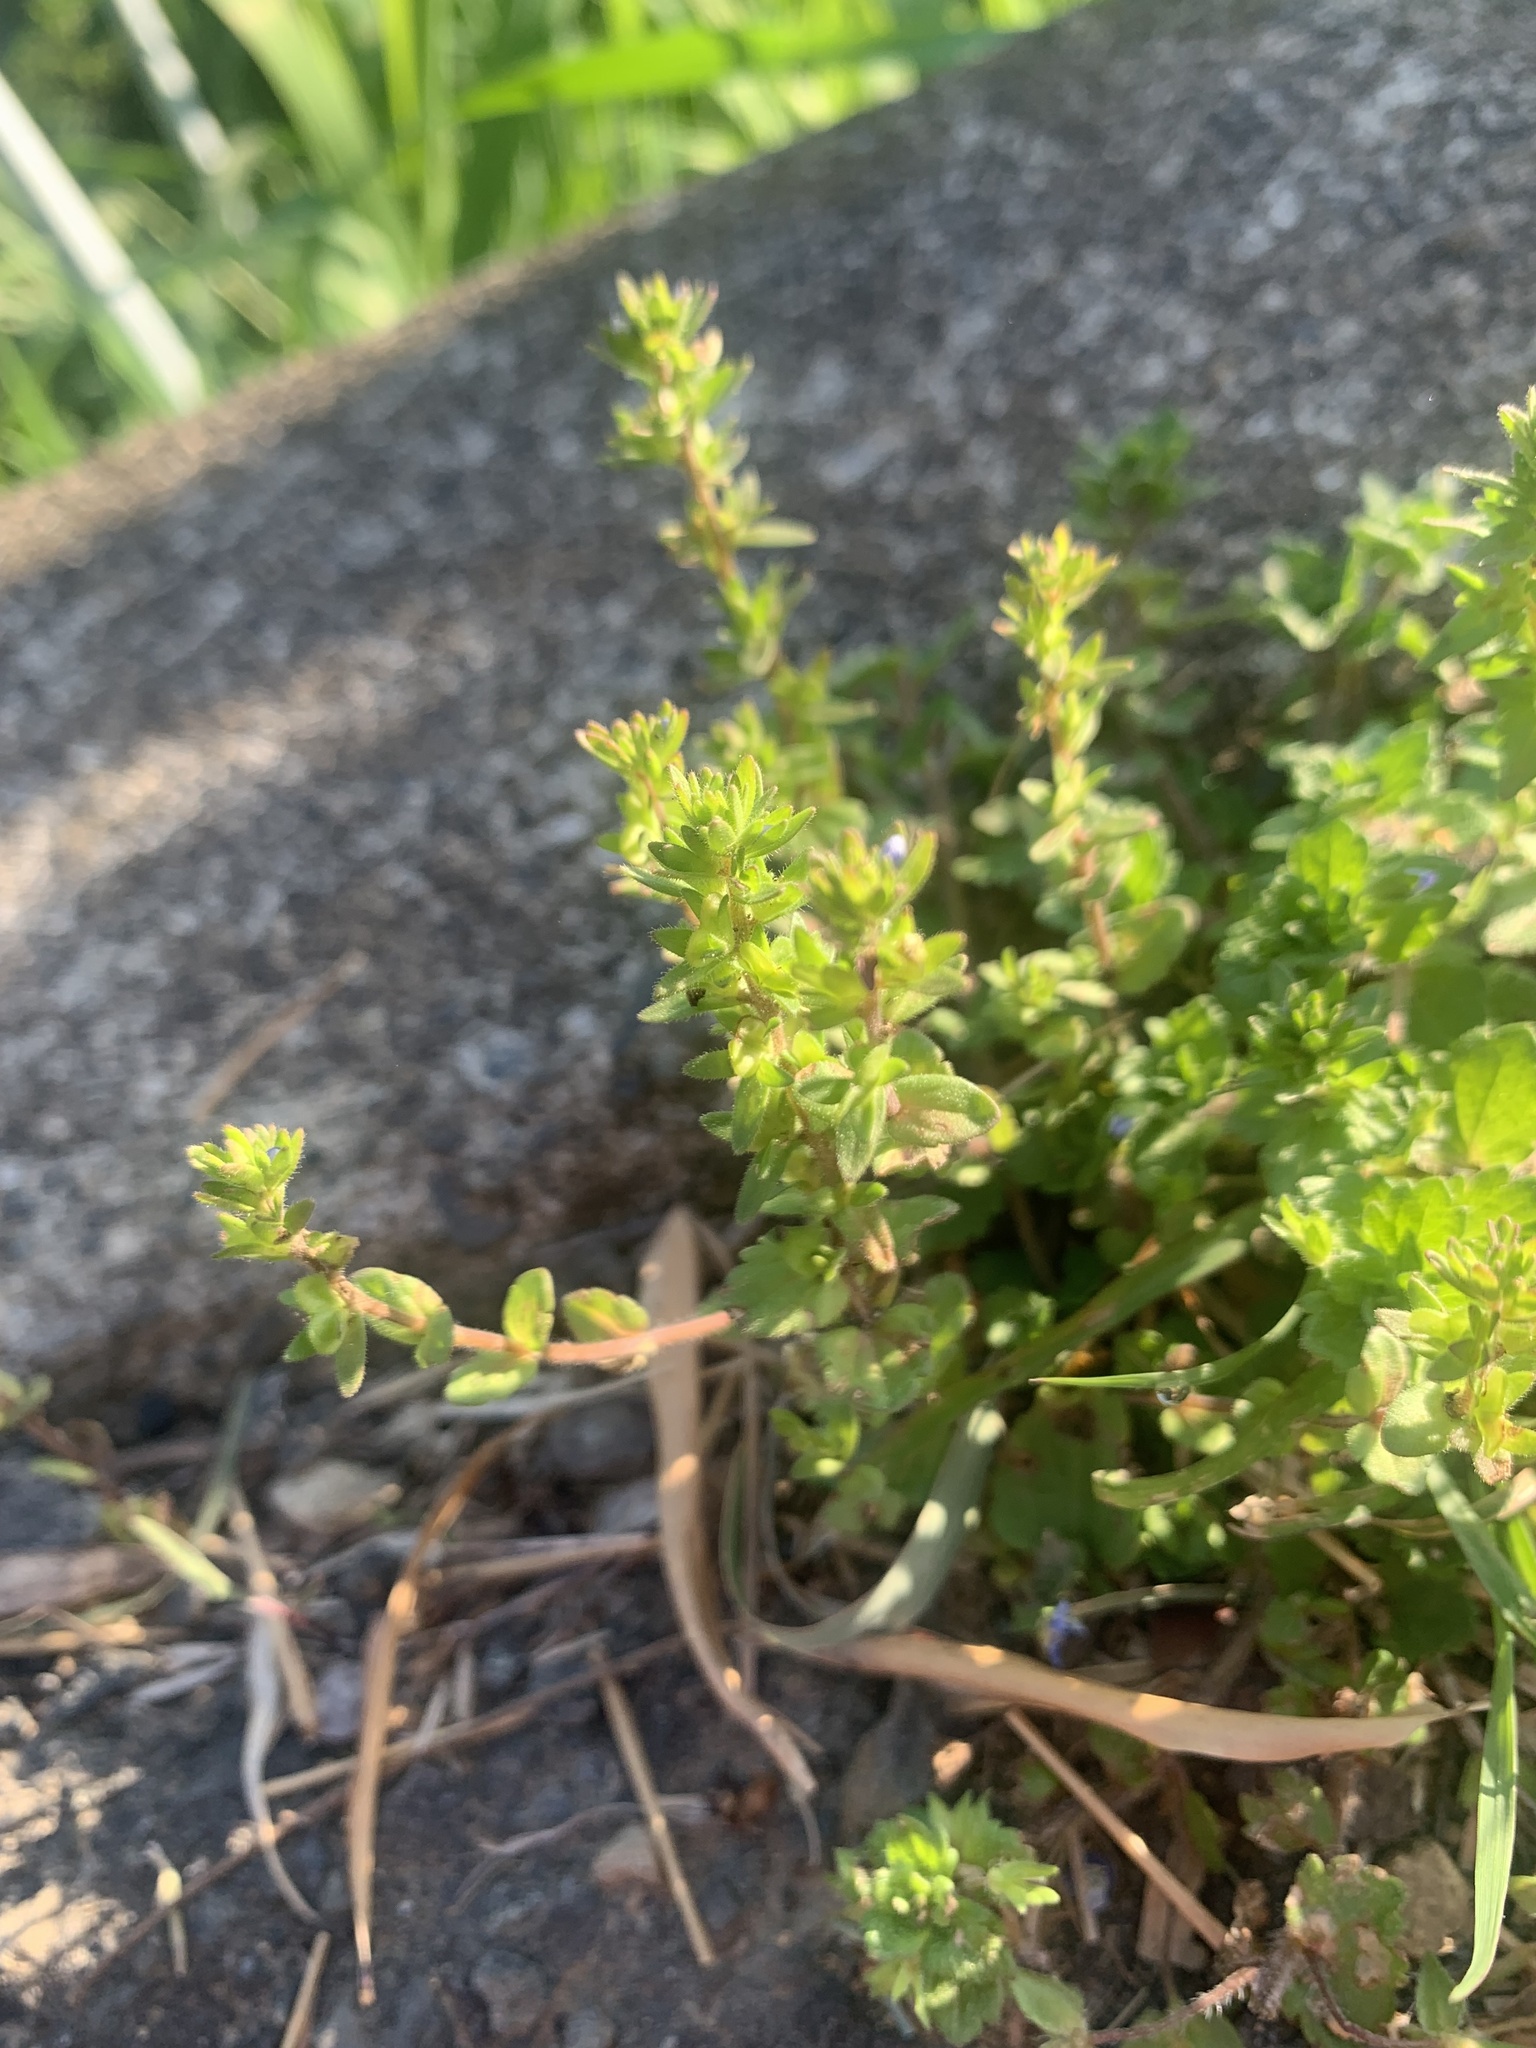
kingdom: Plantae
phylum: Tracheophyta
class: Magnoliopsida
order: Lamiales
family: Plantaginaceae
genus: Veronica
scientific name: Veronica arvensis
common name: Corn speedwell
